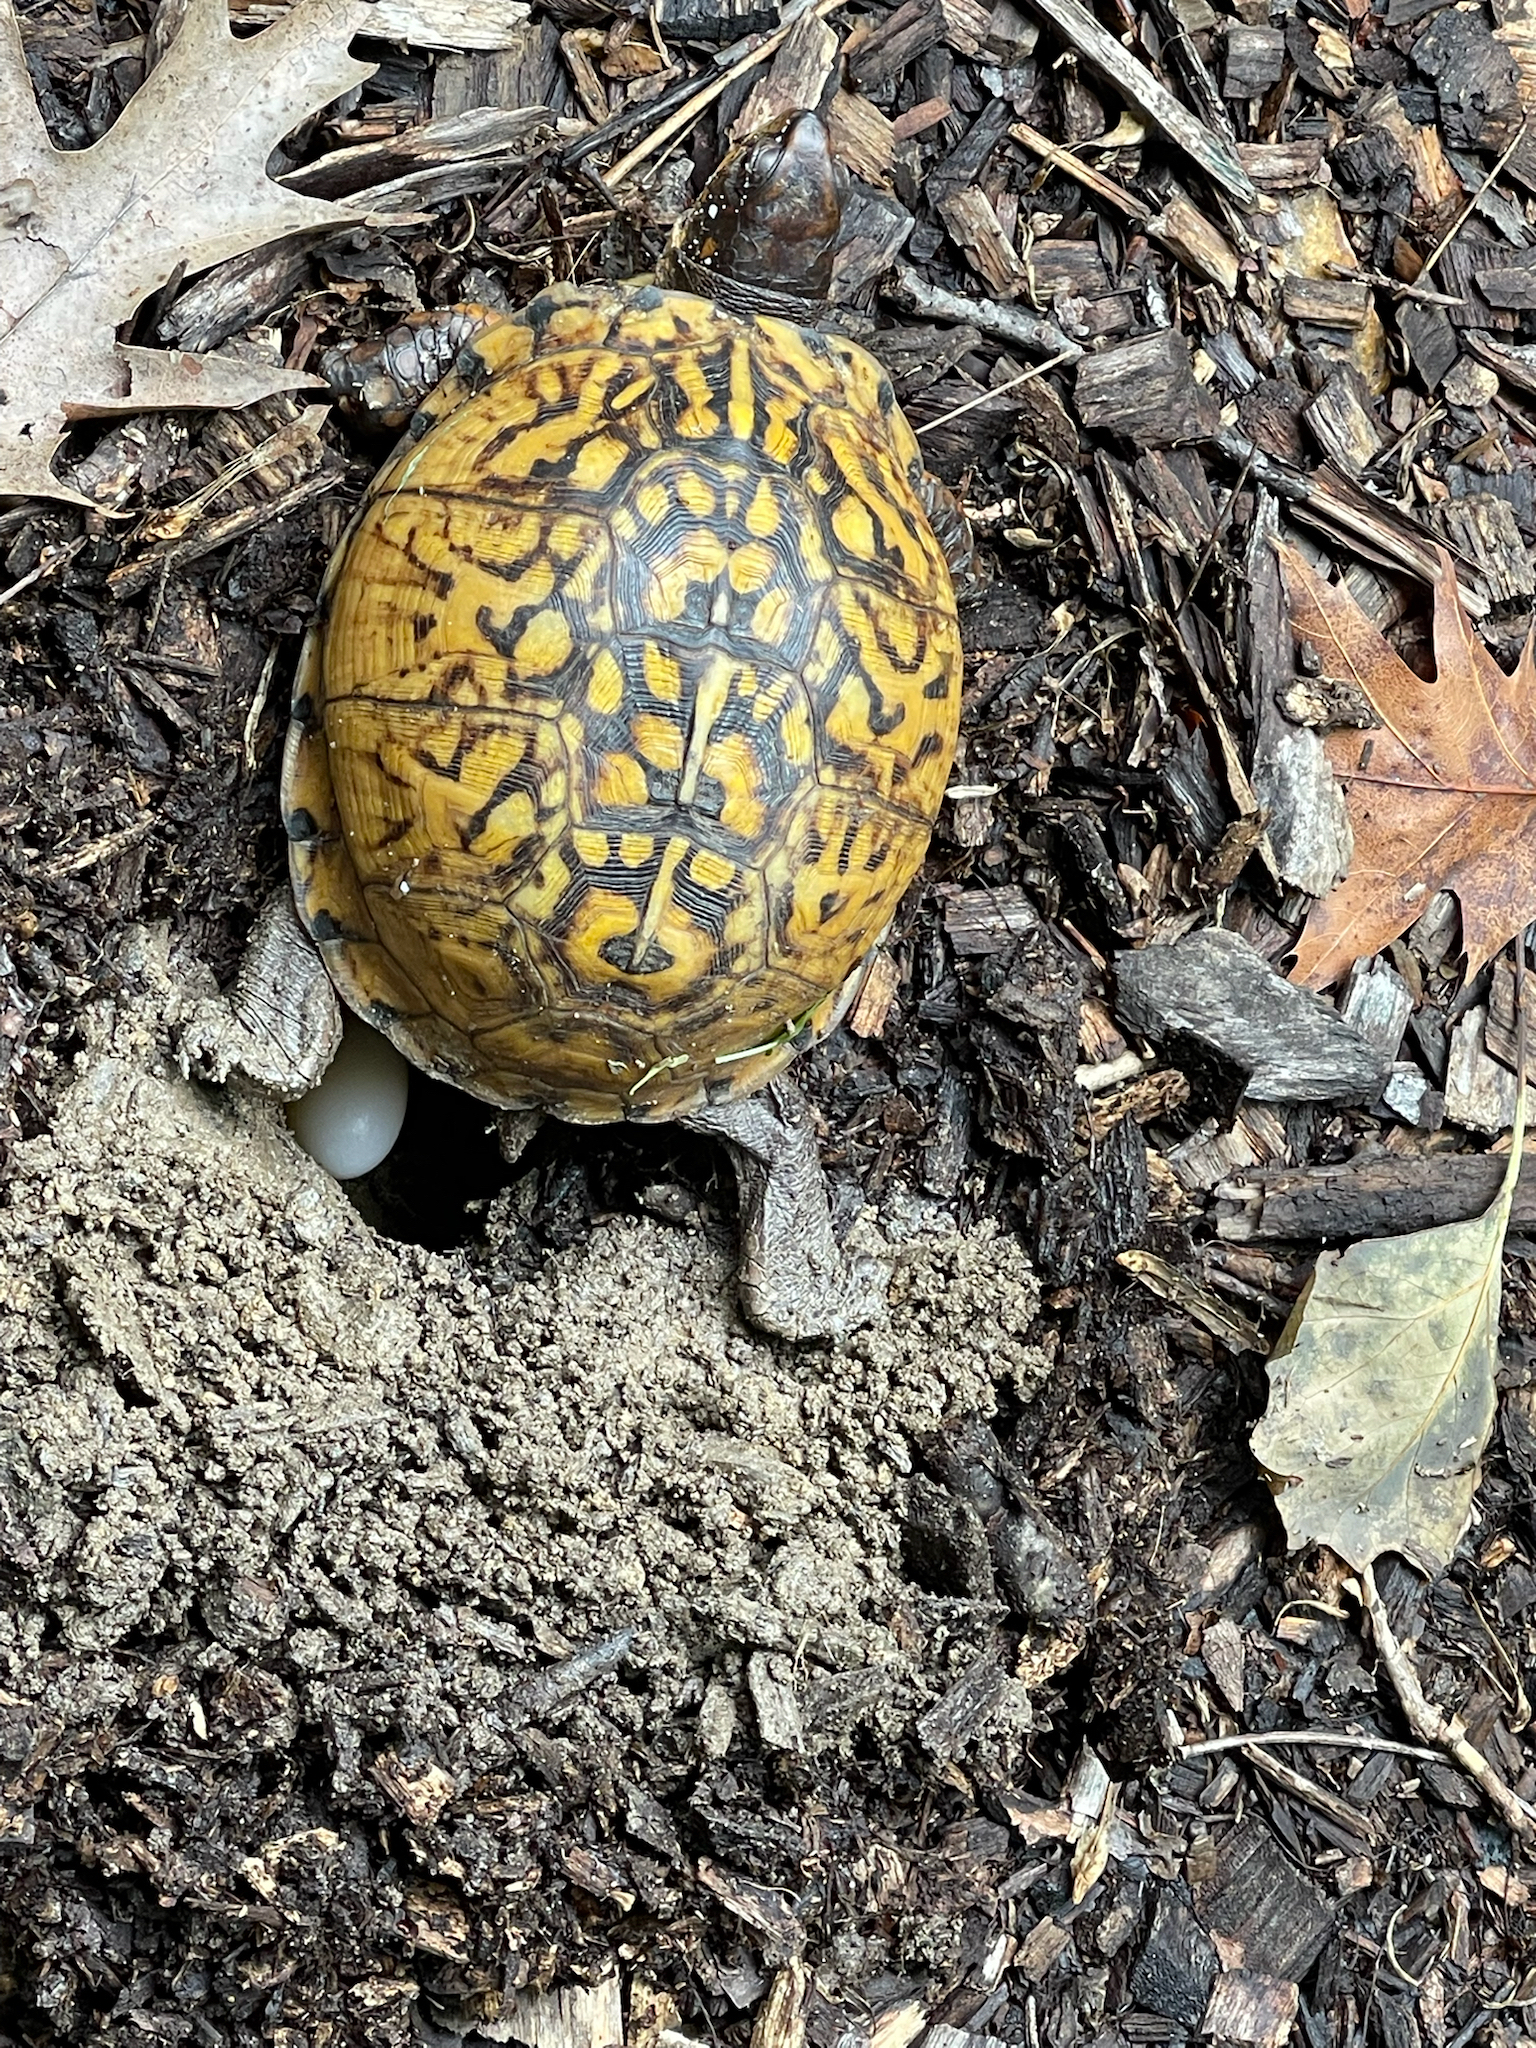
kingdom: Animalia
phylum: Chordata
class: Testudines
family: Emydidae
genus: Terrapene
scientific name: Terrapene carolina
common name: Common box turtle
